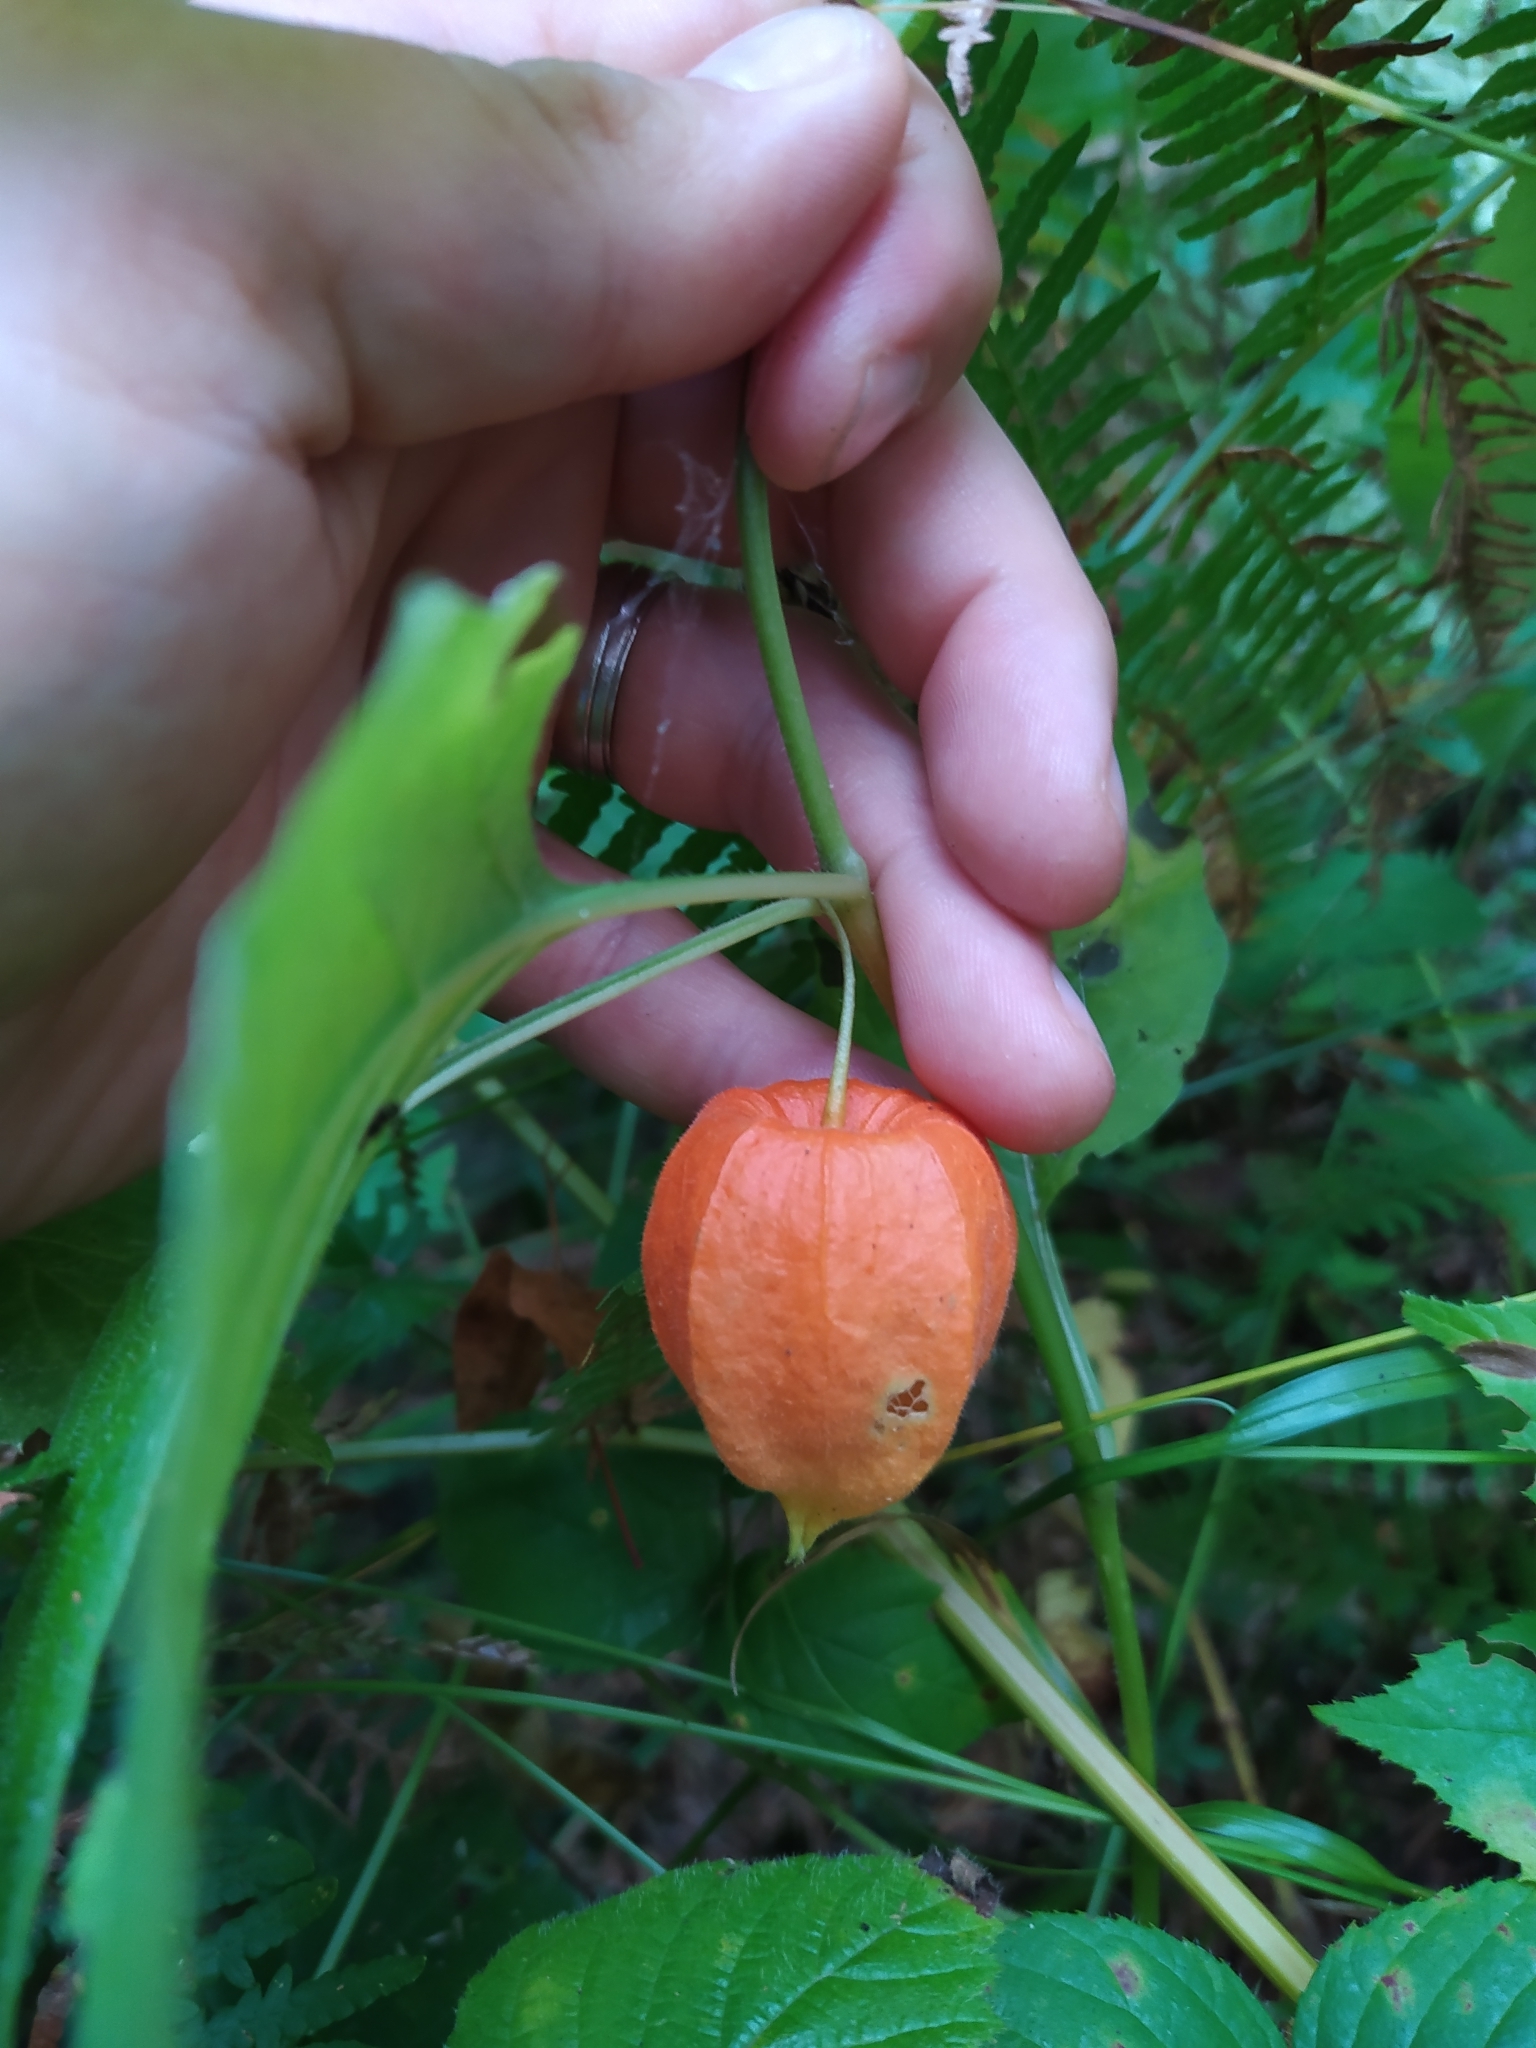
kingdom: Plantae
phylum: Tracheophyta
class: Magnoliopsida
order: Solanales
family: Solanaceae
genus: Alkekengi
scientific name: Alkekengi officinarum
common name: Japanese-lantern
